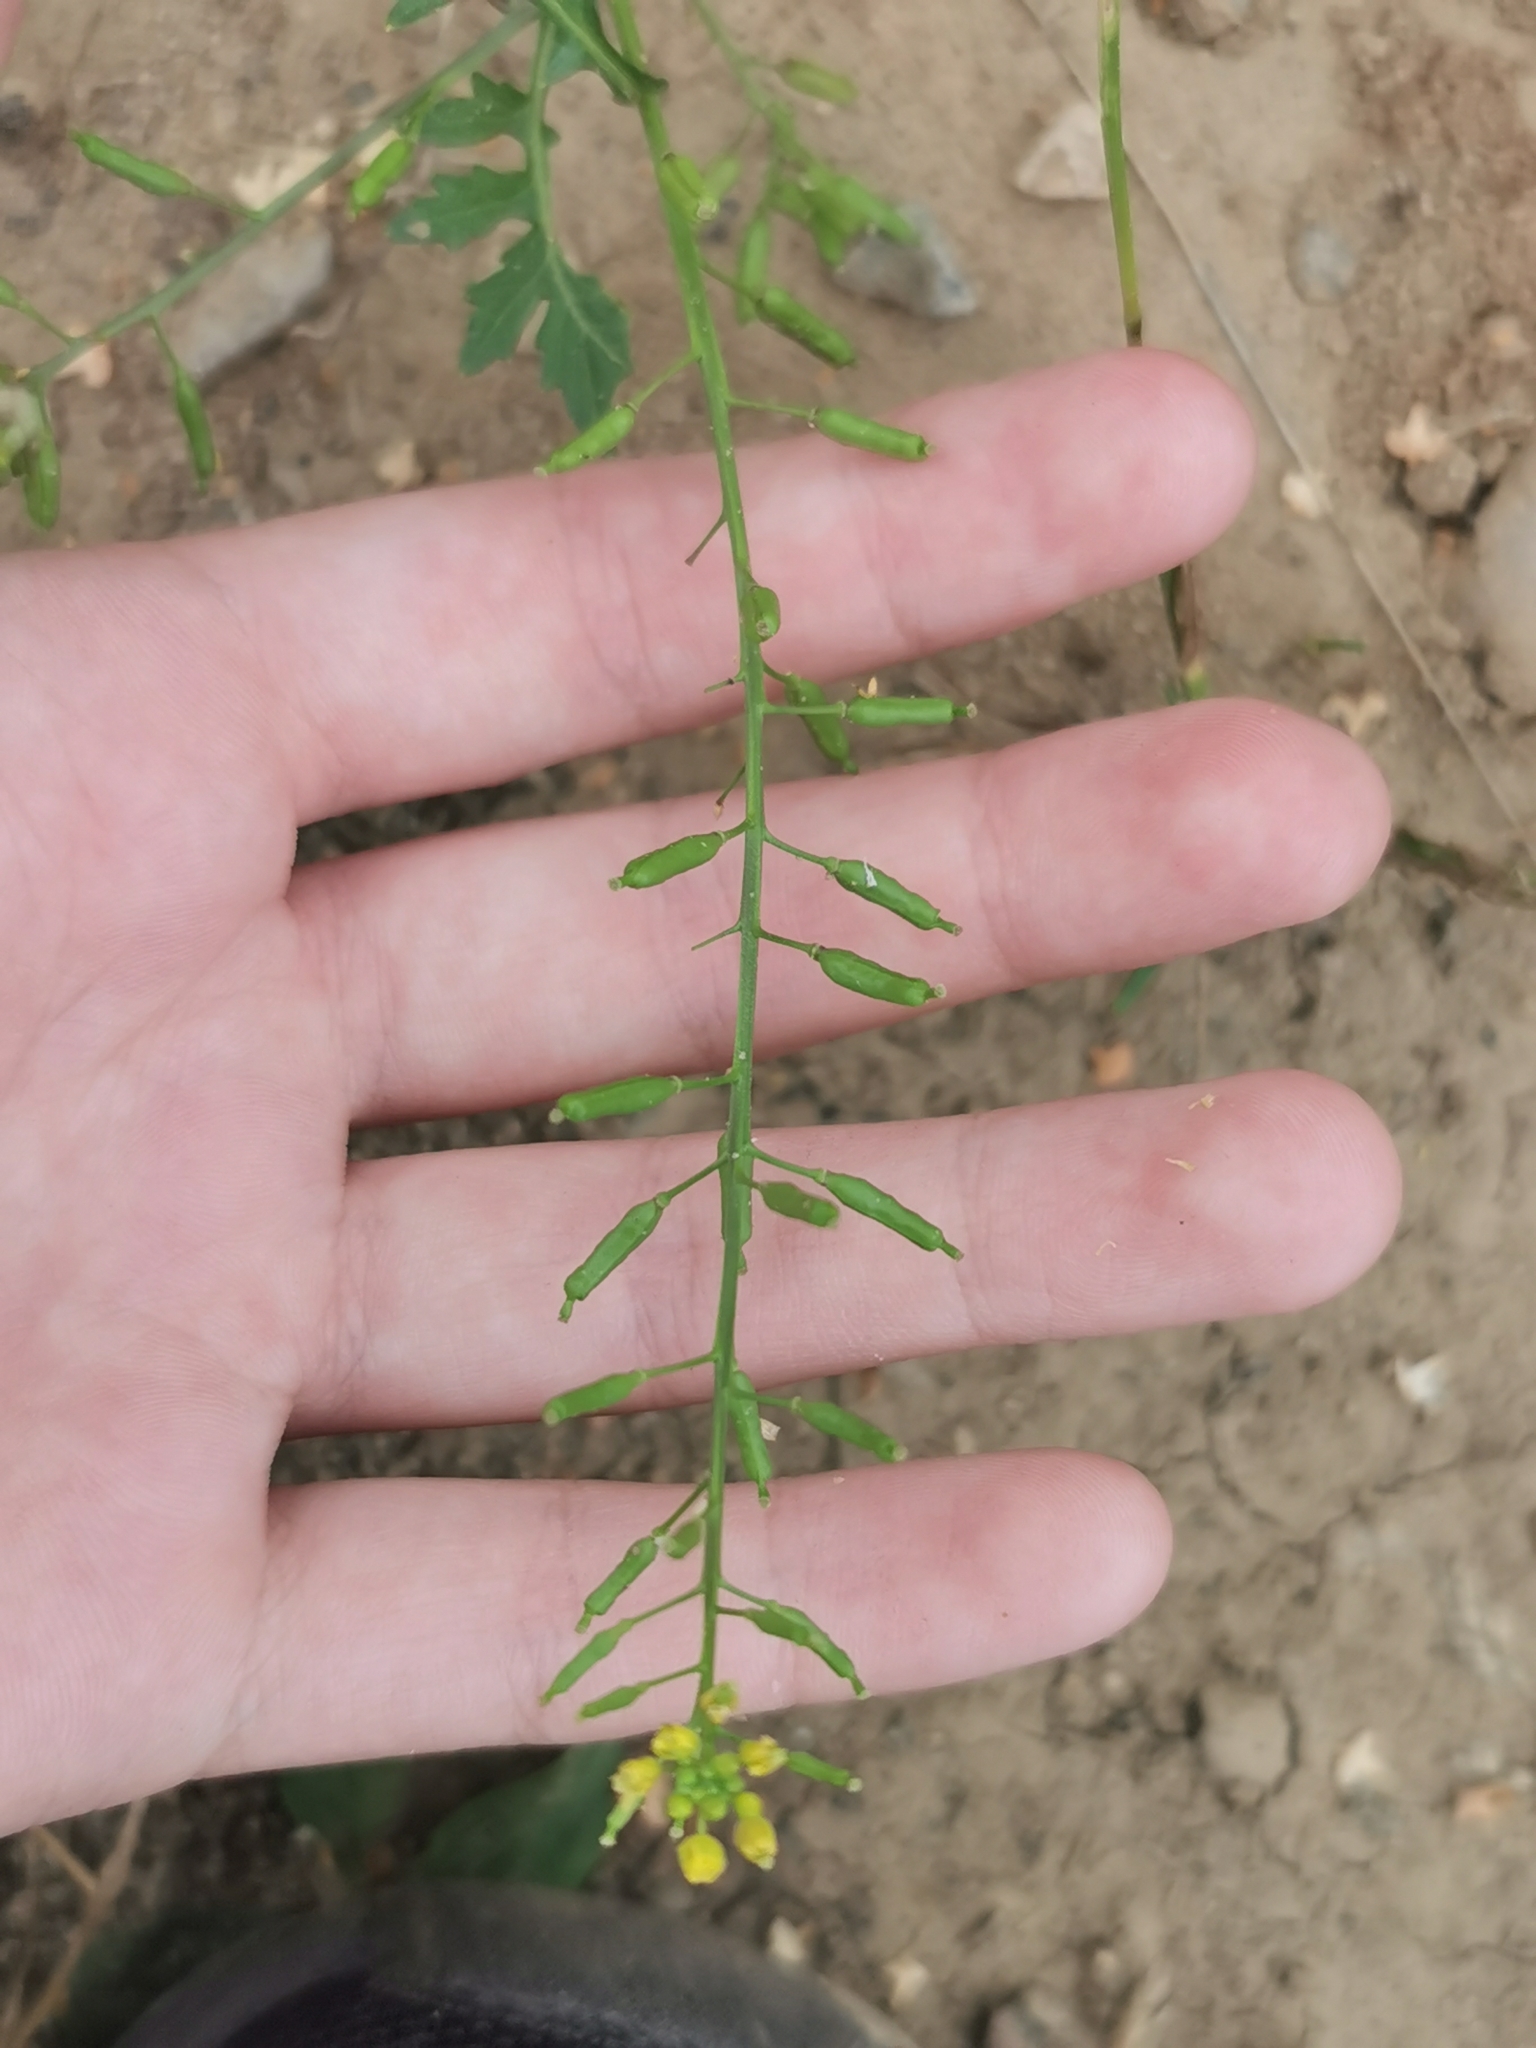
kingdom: Plantae
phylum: Tracheophyta
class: Magnoliopsida
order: Brassicales
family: Brassicaceae
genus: Rorippa
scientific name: Rorippa palustris
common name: Marsh yellow-cress
